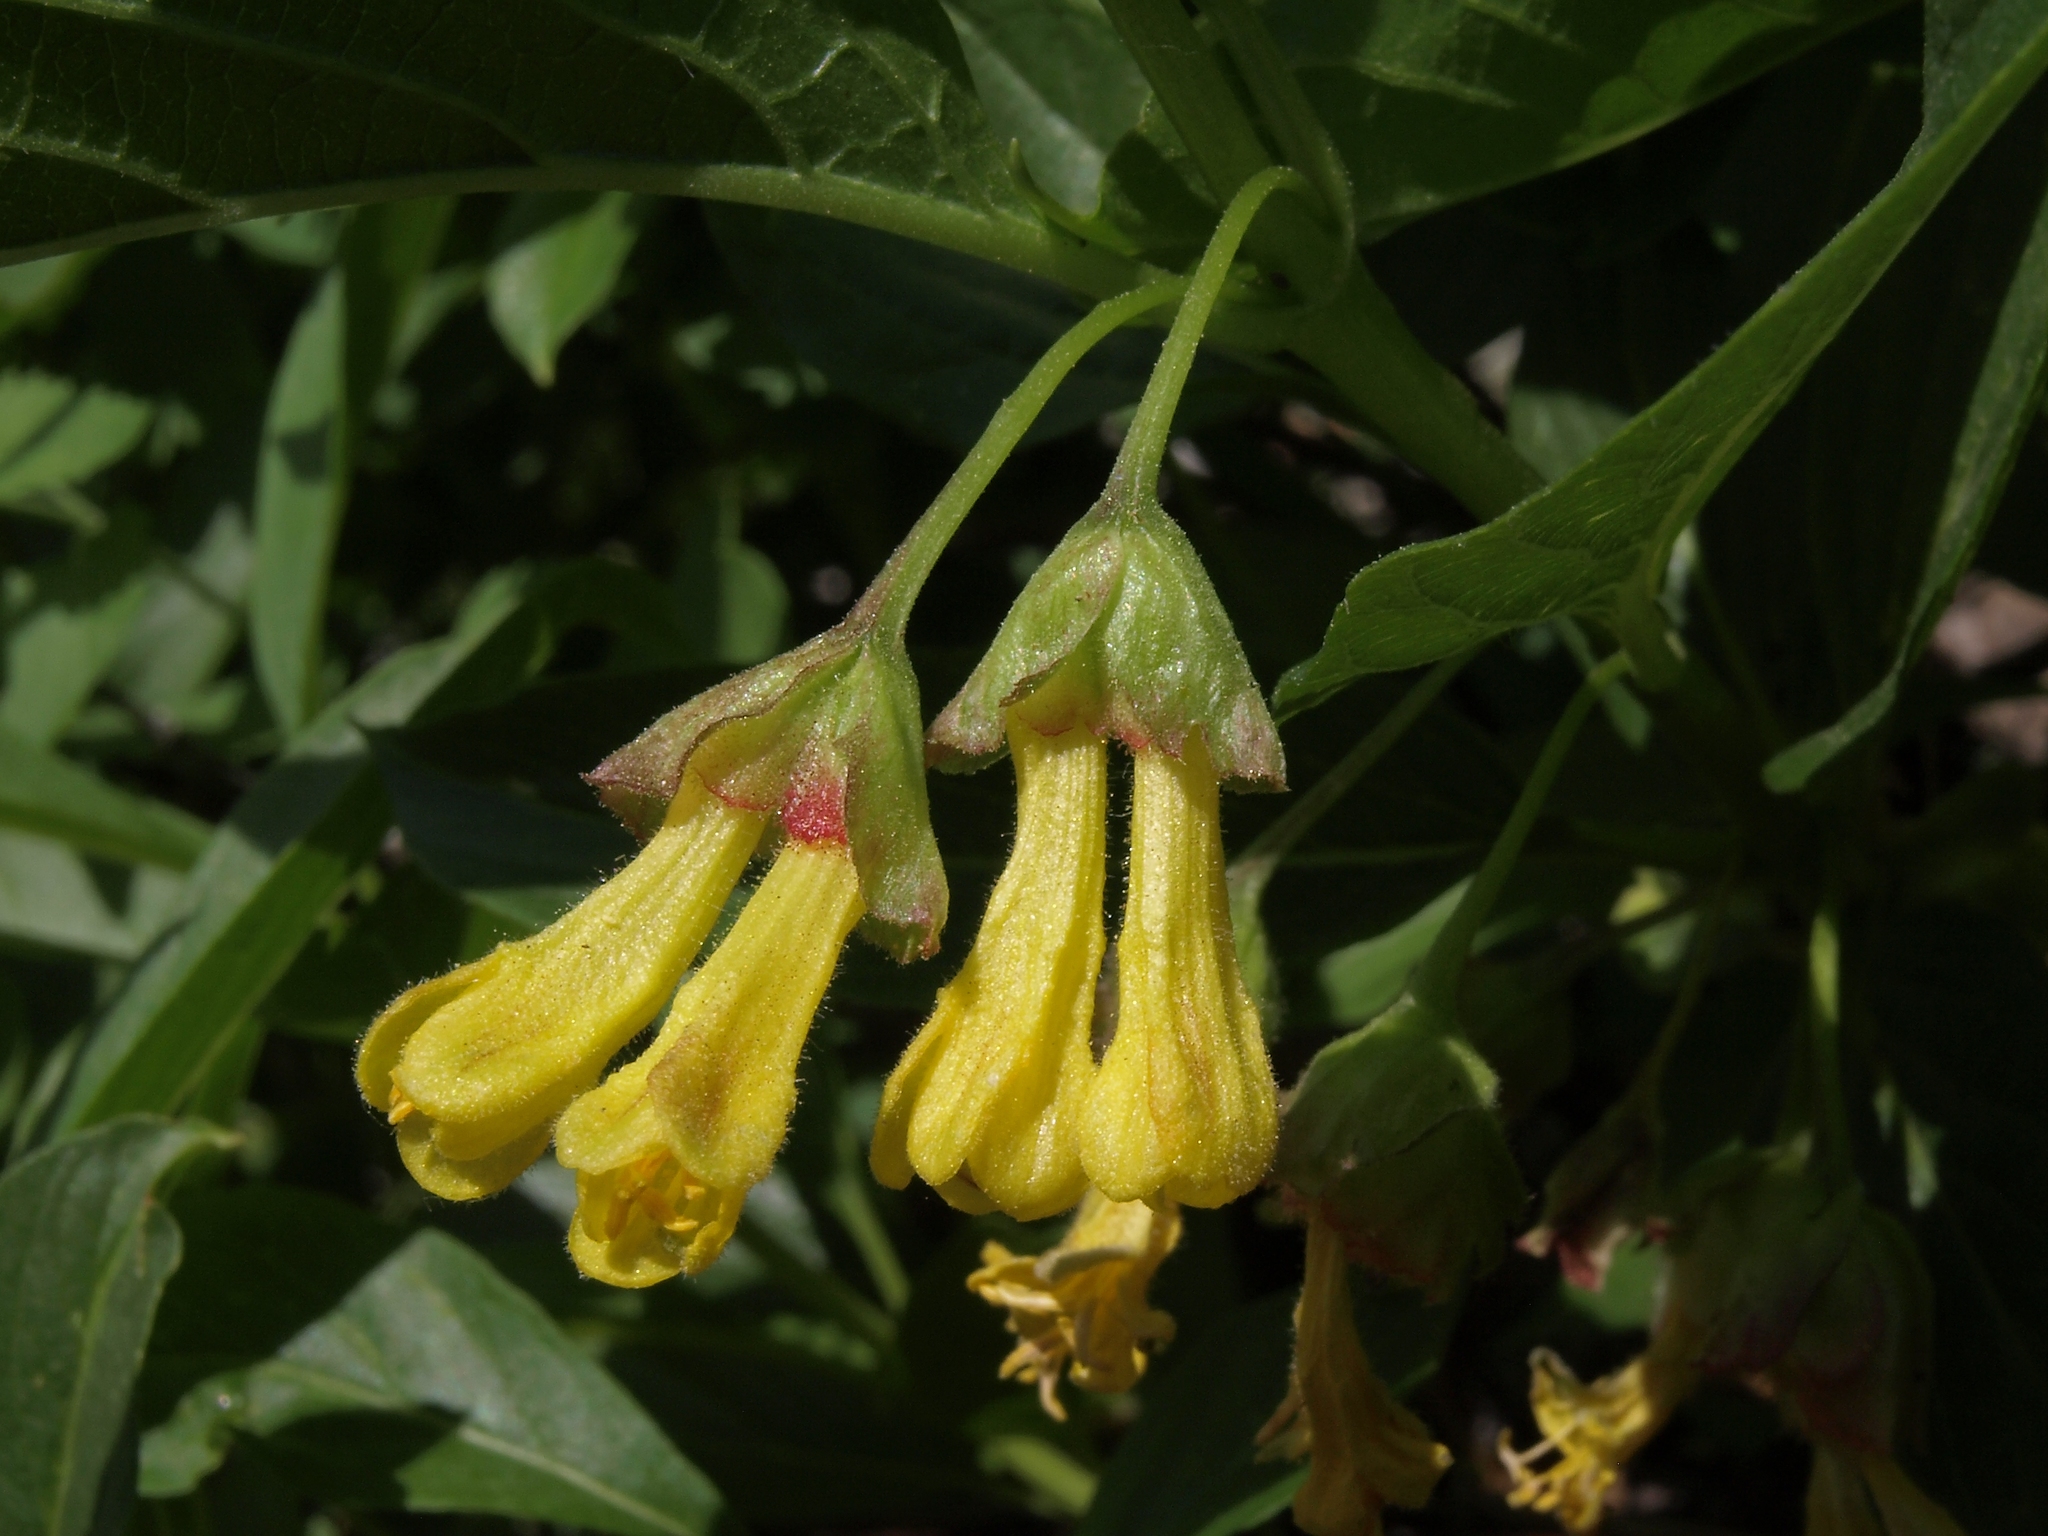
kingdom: Plantae
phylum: Tracheophyta
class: Magnoliopsida
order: Dipsacales
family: Caprifoliaceae
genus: Lonicera
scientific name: Lonicera involucrata
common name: Californian honeysuckle
